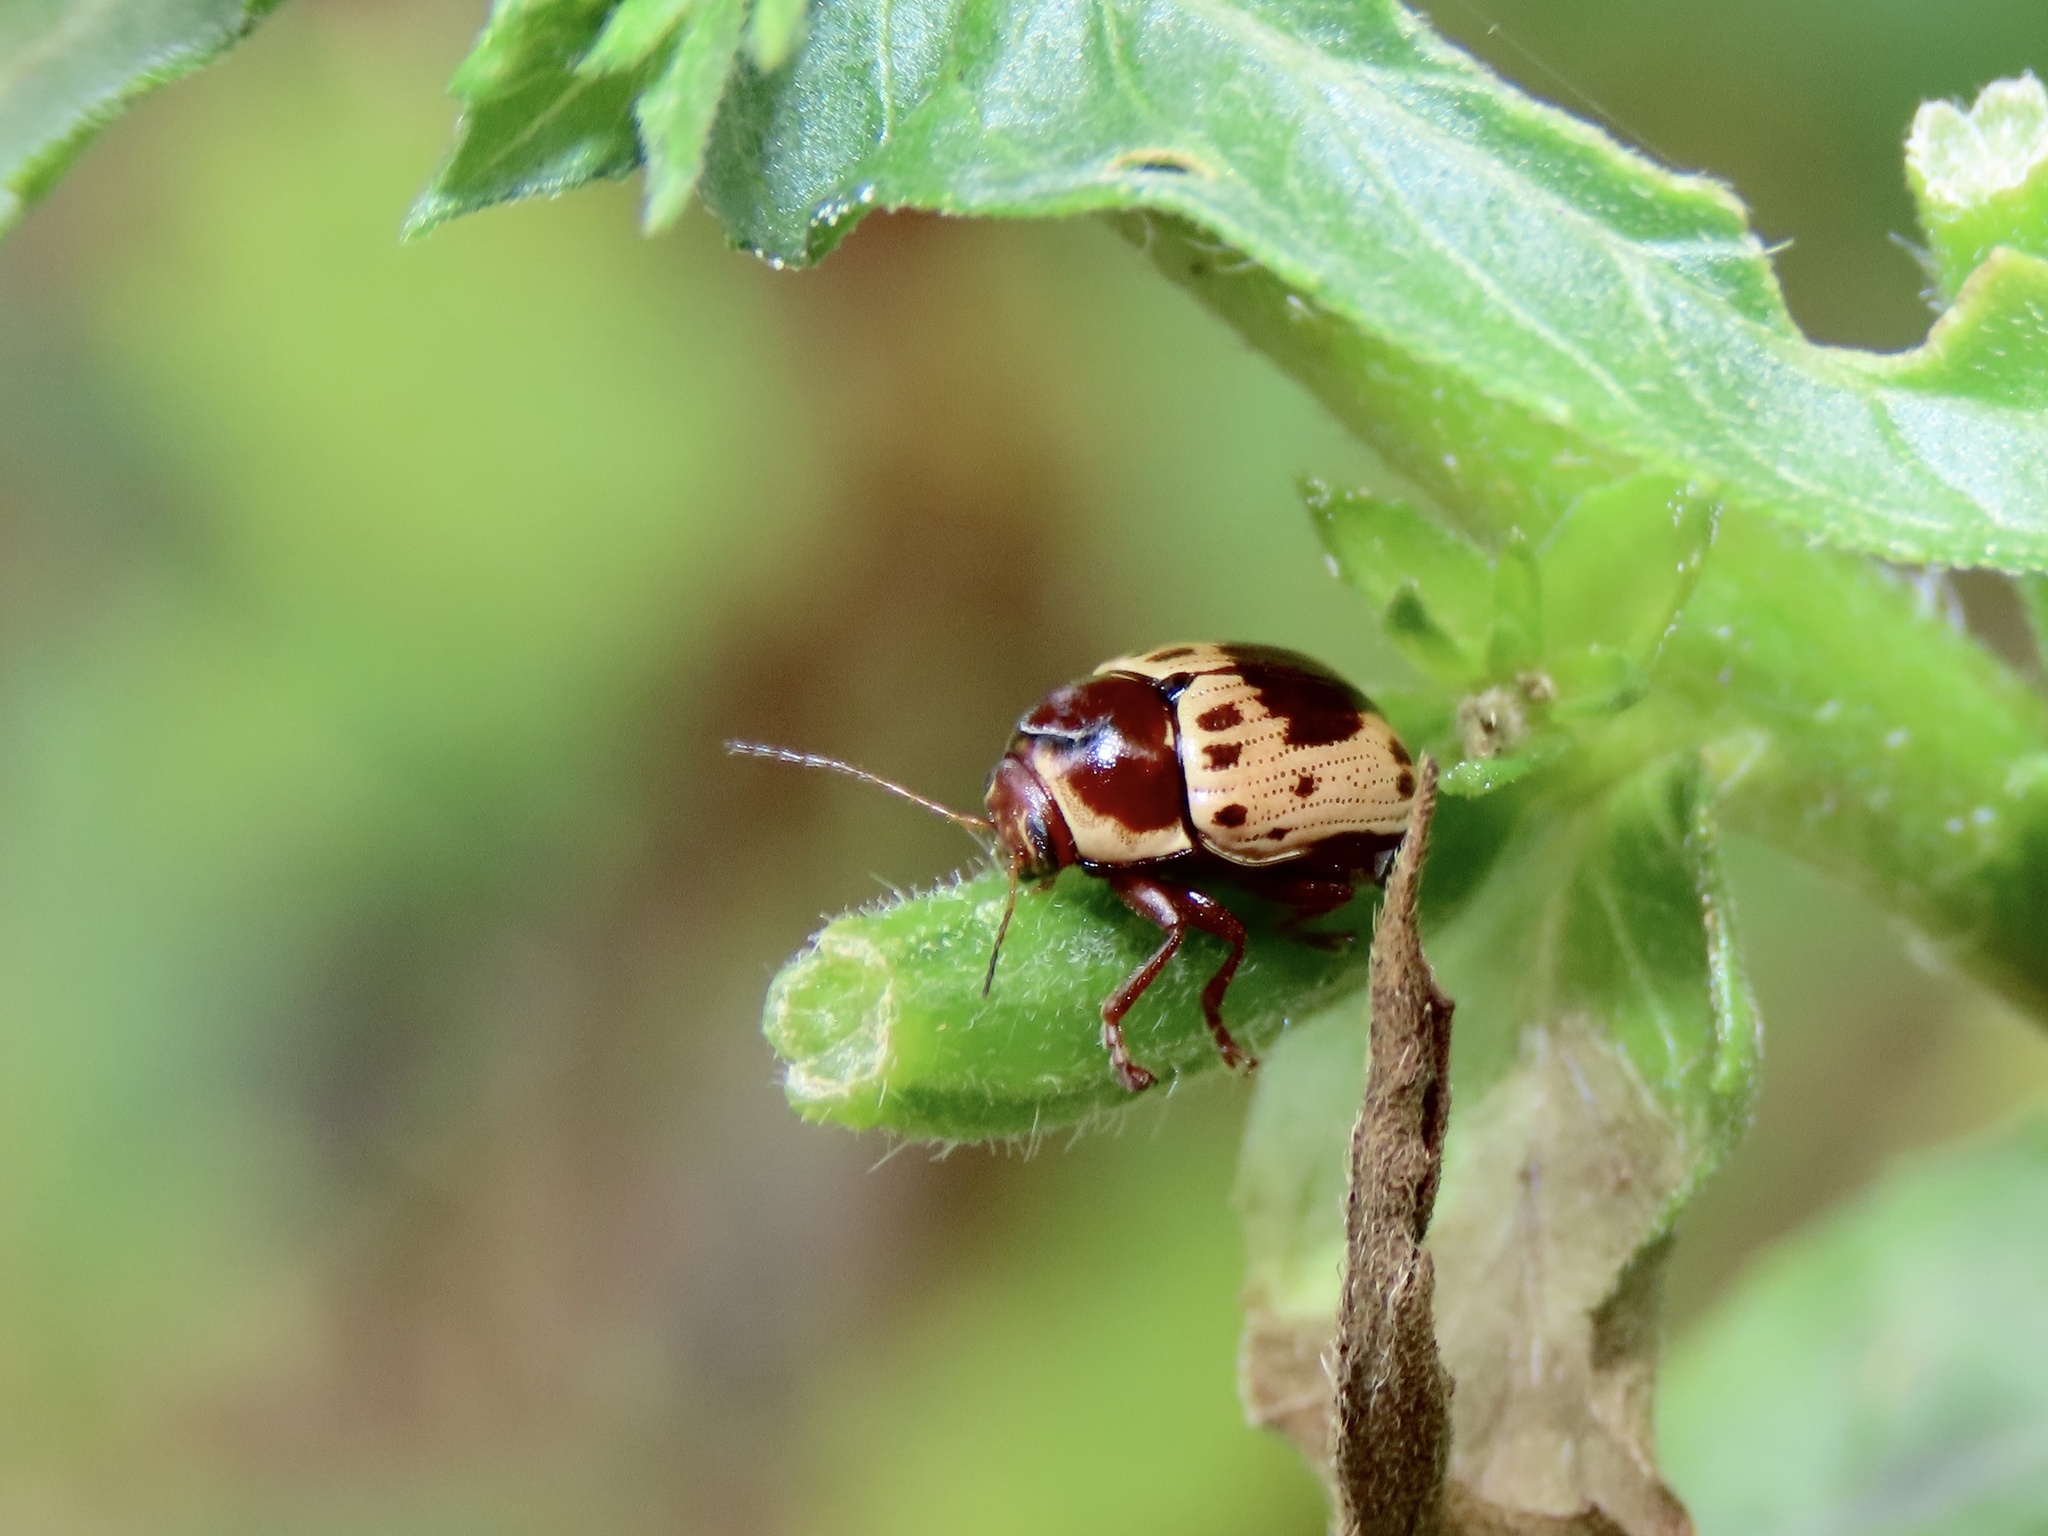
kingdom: Animalia
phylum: Arthropoda
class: Insecta
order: Coleoptera
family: Chrysomelidae
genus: Cryptocephalus
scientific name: Cryptocephalus mutabilis
